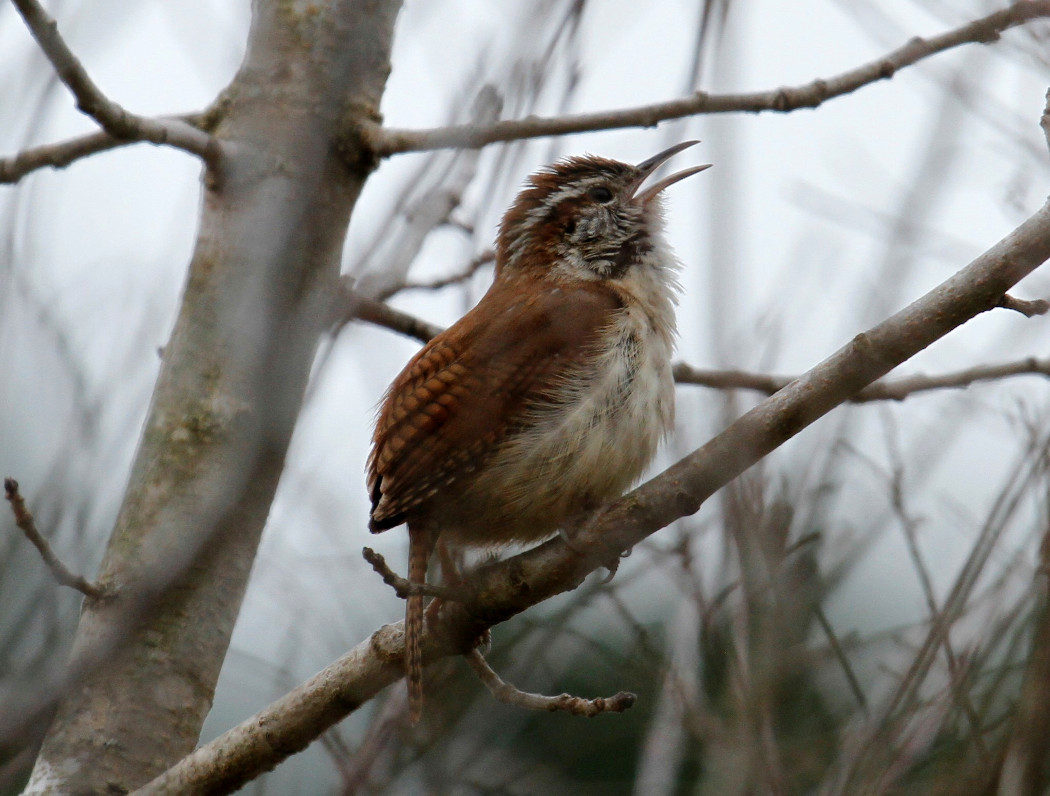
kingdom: Animalia
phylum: Chordata
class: Aves
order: Passeriformes
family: Troglodytidae
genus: Thryothorus
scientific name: Thryothorus ludovicianus
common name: Carolina wren
